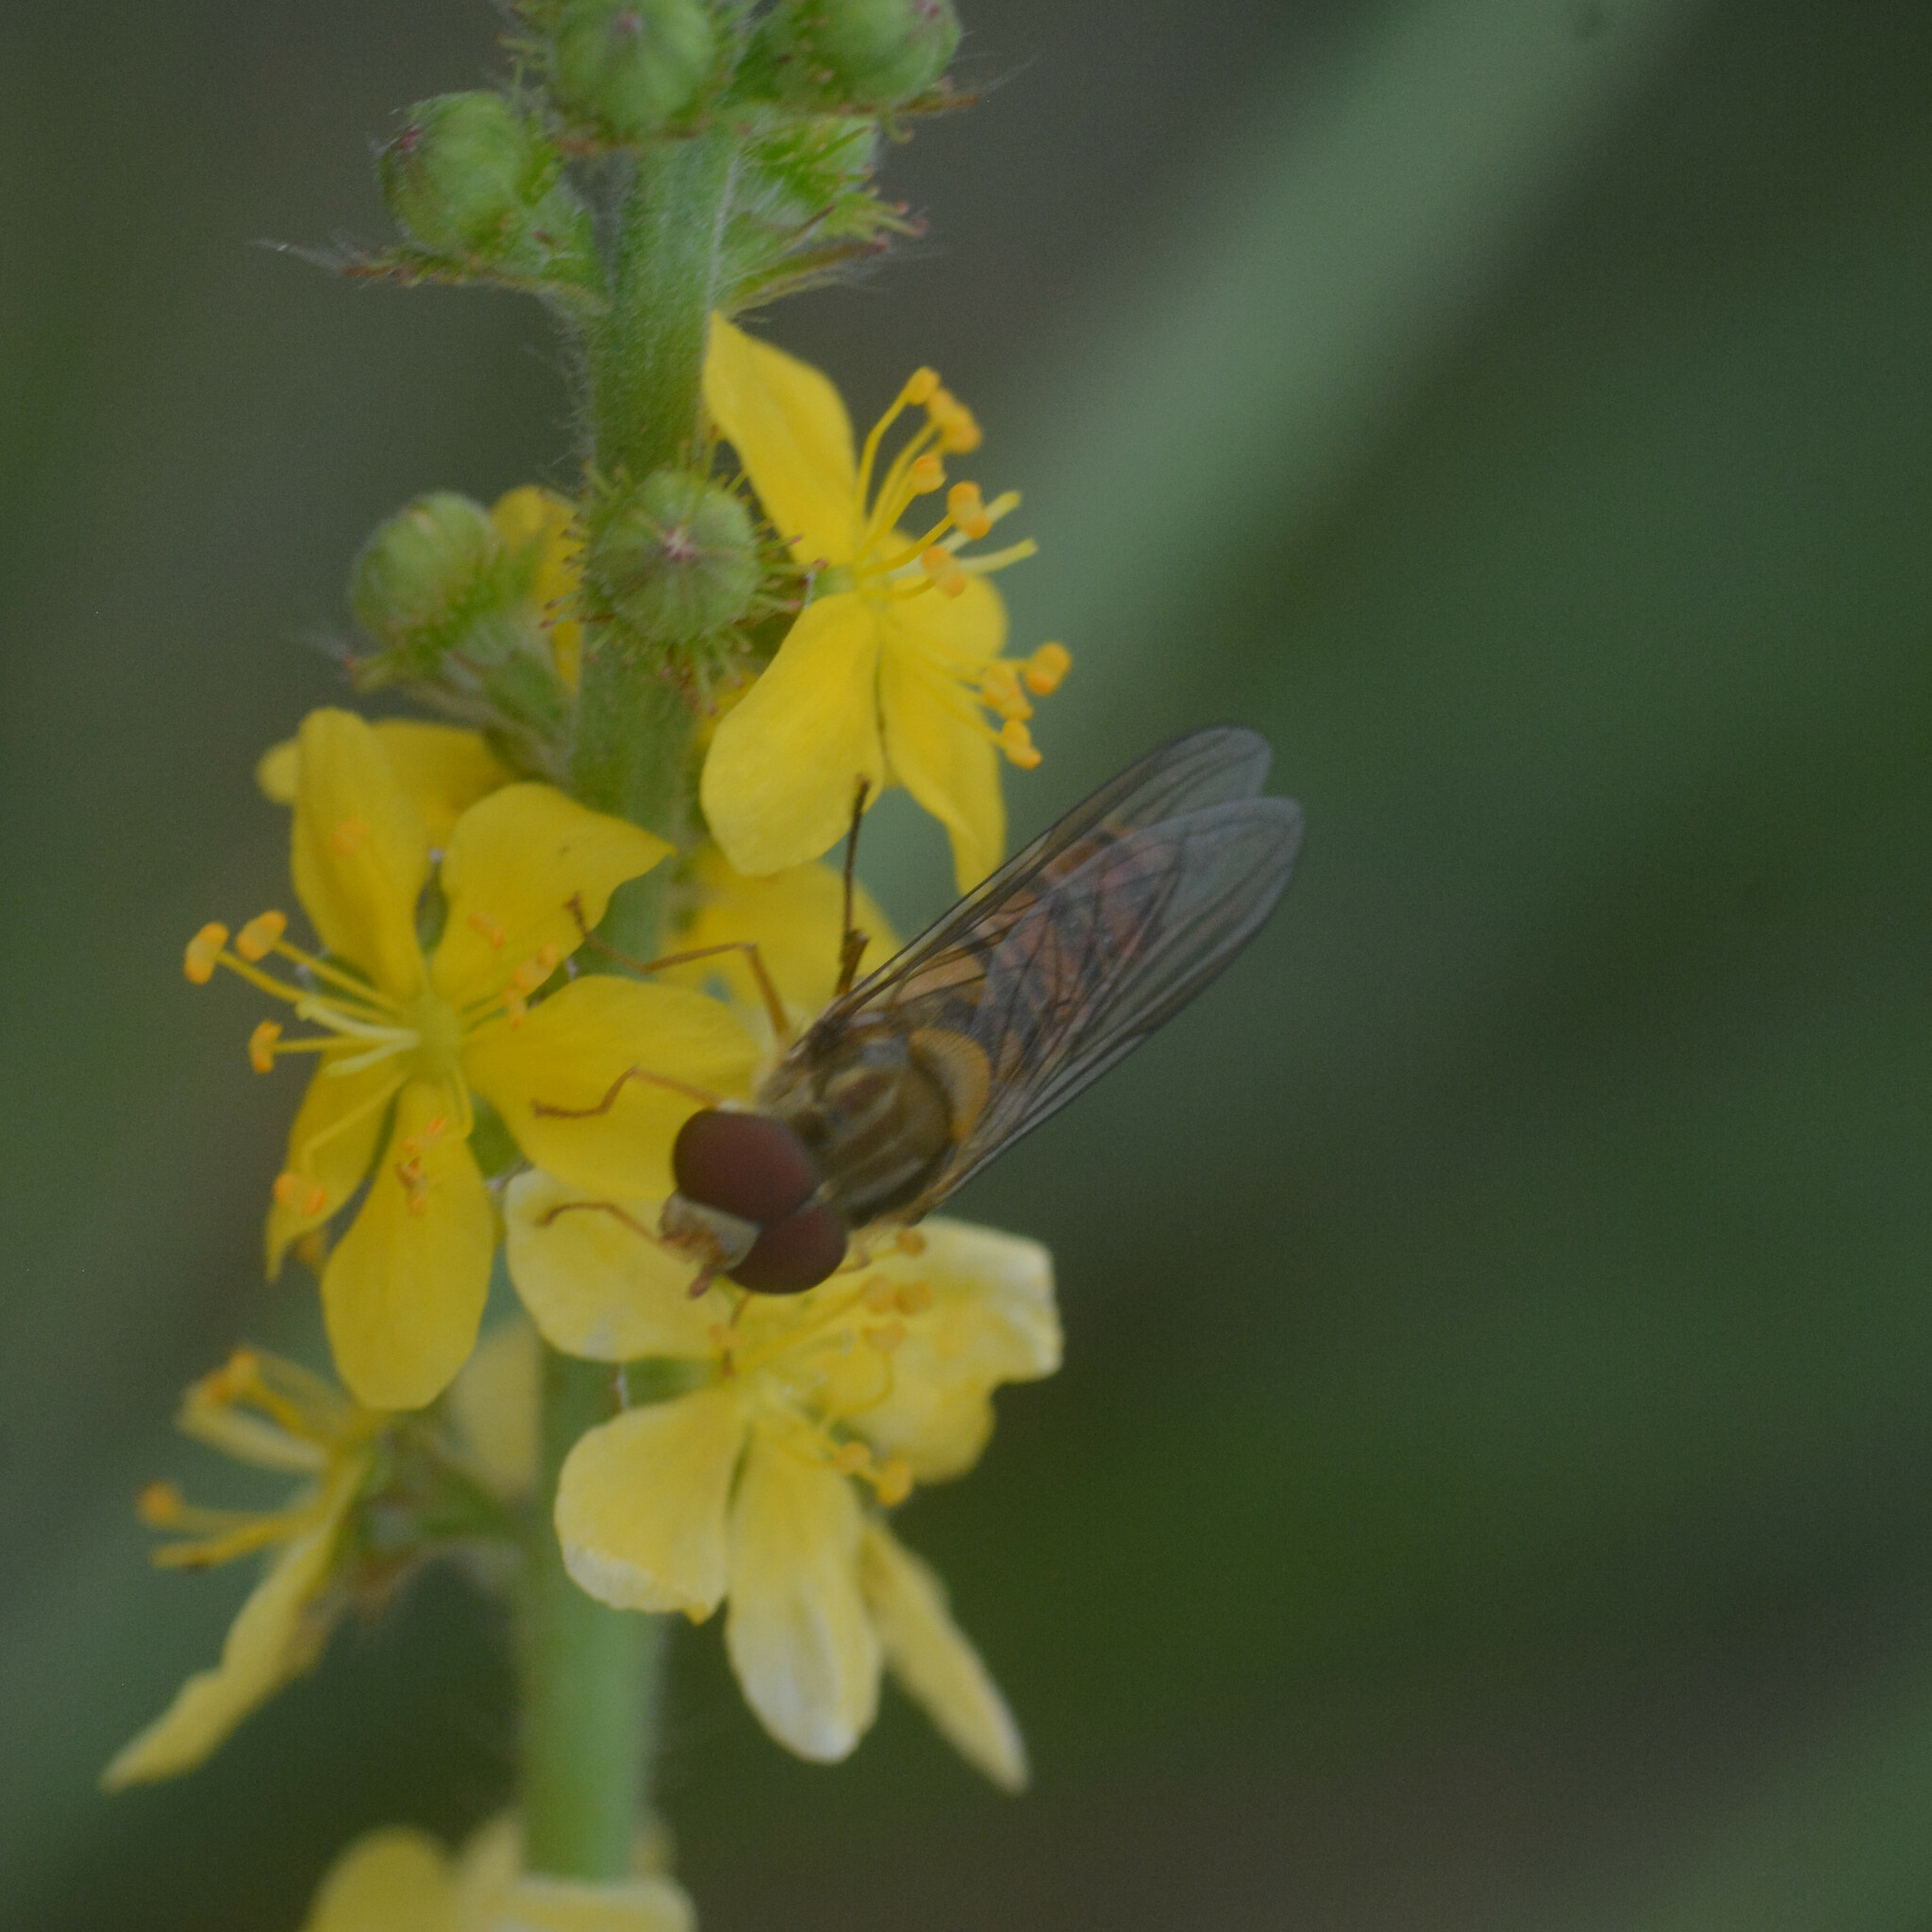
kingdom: Animalia
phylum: Arthropoda
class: Insecta
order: Diptera
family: Syrphidae
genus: Episyrphus
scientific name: Episyrphus balteatus
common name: Marmalade hoverfly
